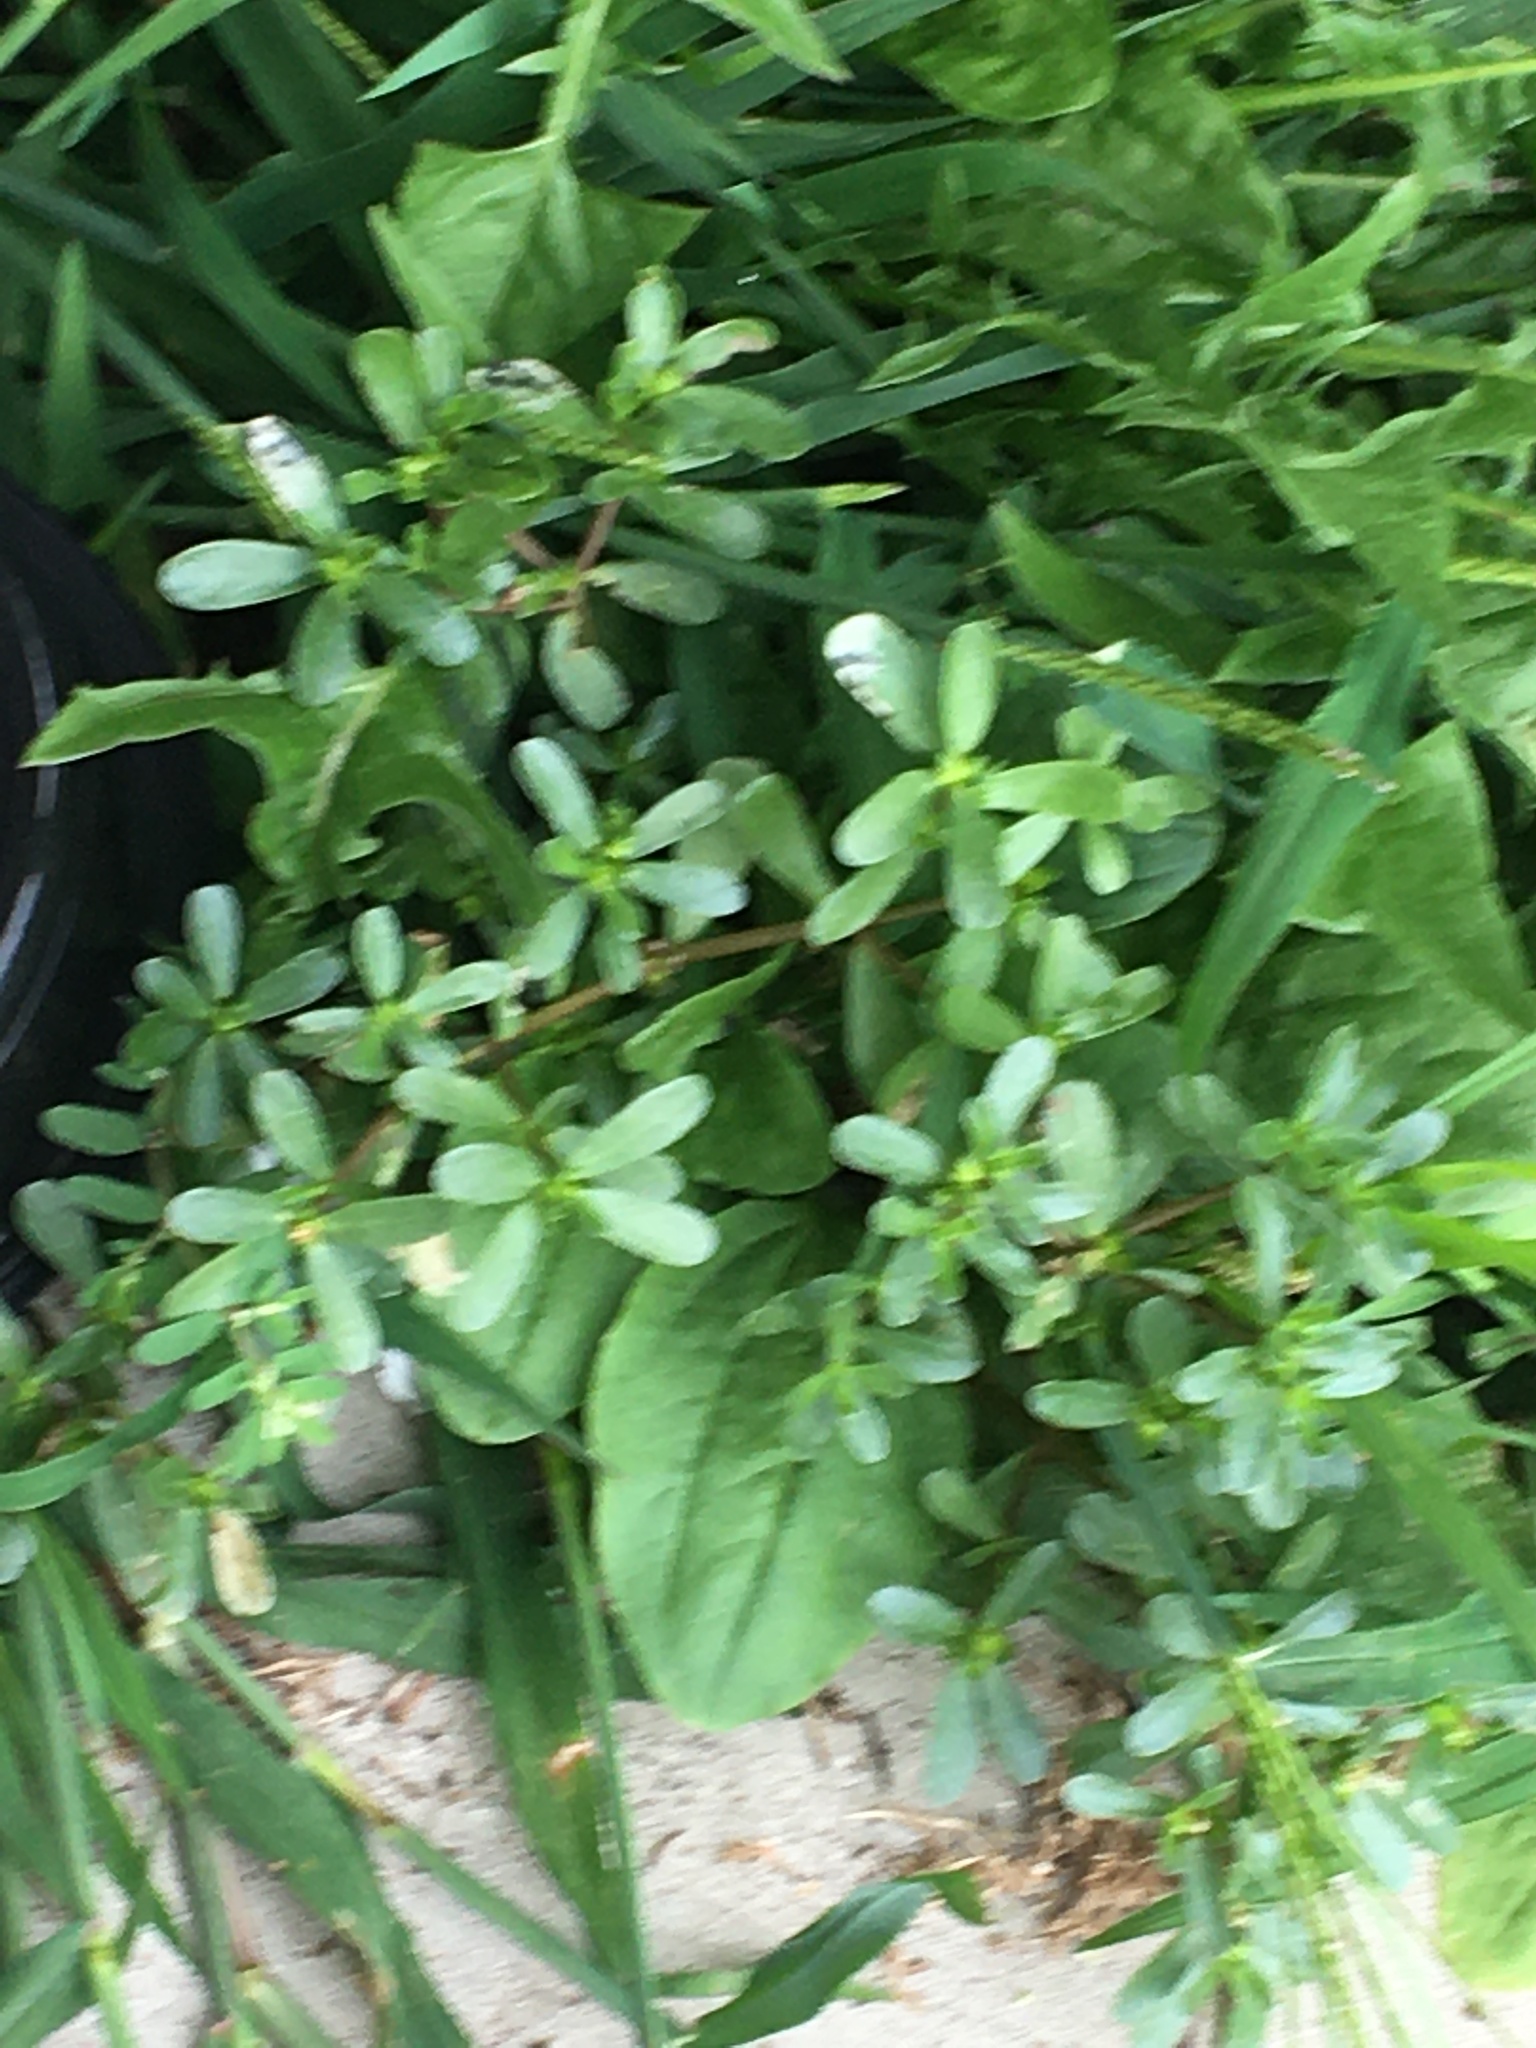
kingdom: Plantae
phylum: Tracheophyta
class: Magnoliopsida
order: Caryophyllales
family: Portulacaceae
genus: Portulaca
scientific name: Portulaca oleracea
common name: Common purslane
